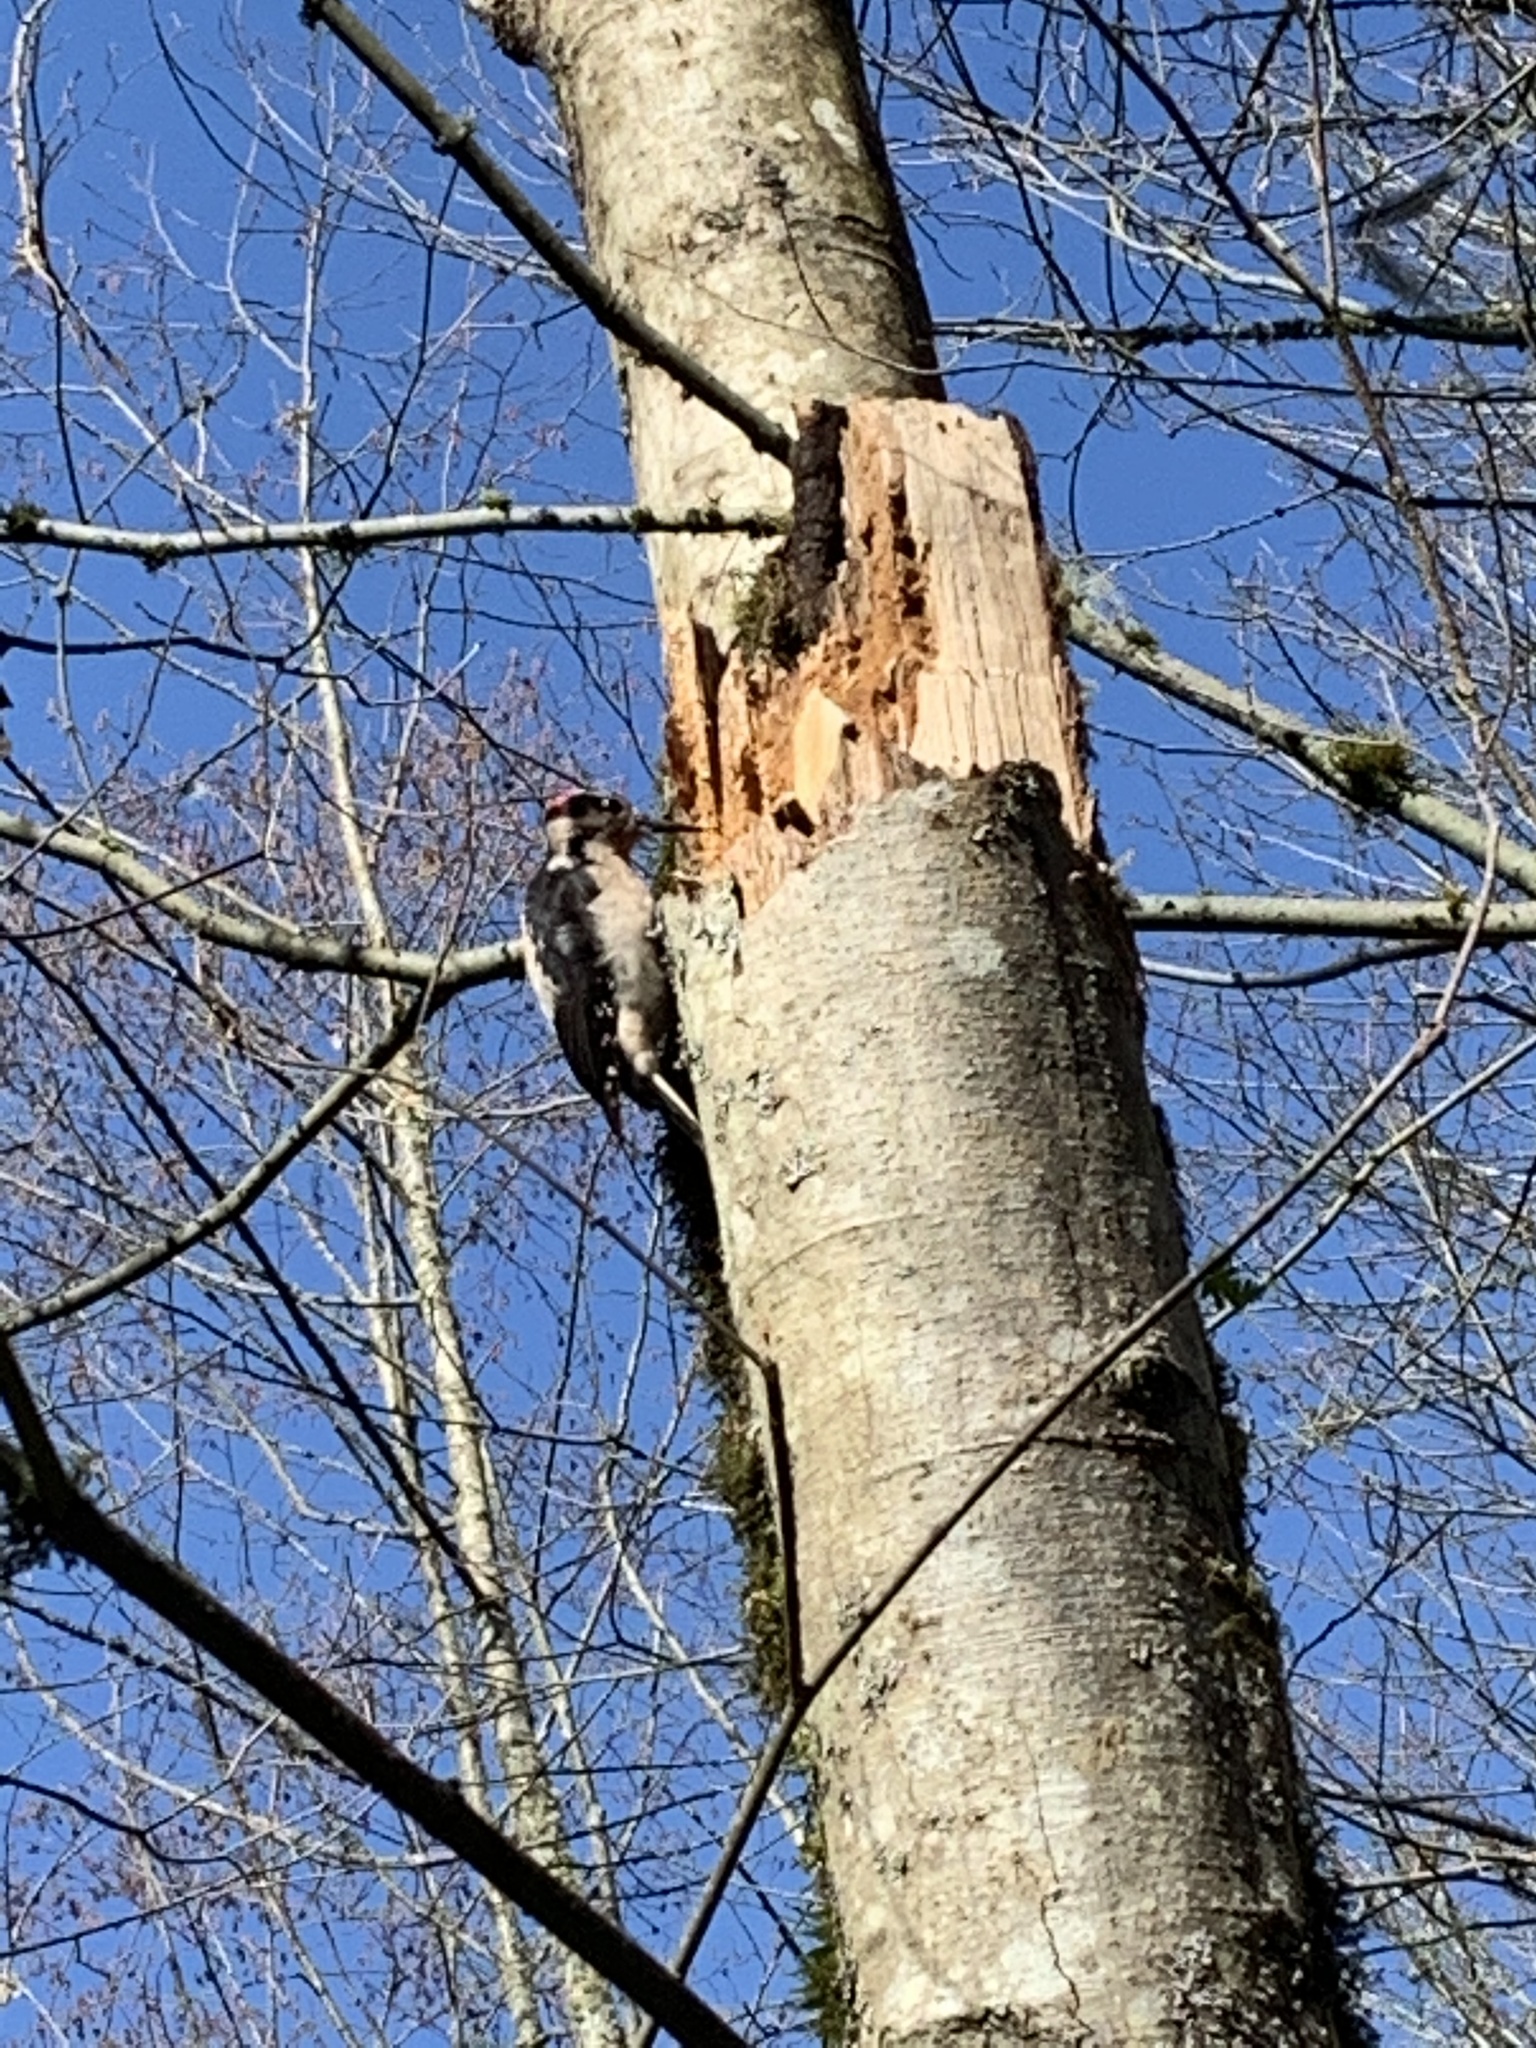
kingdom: Animalia
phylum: Chordata
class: Aves
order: Piciformes
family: Picidae
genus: Leuconotopicus
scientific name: Leuconotopicus villosus
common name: Hairy woodpecker
